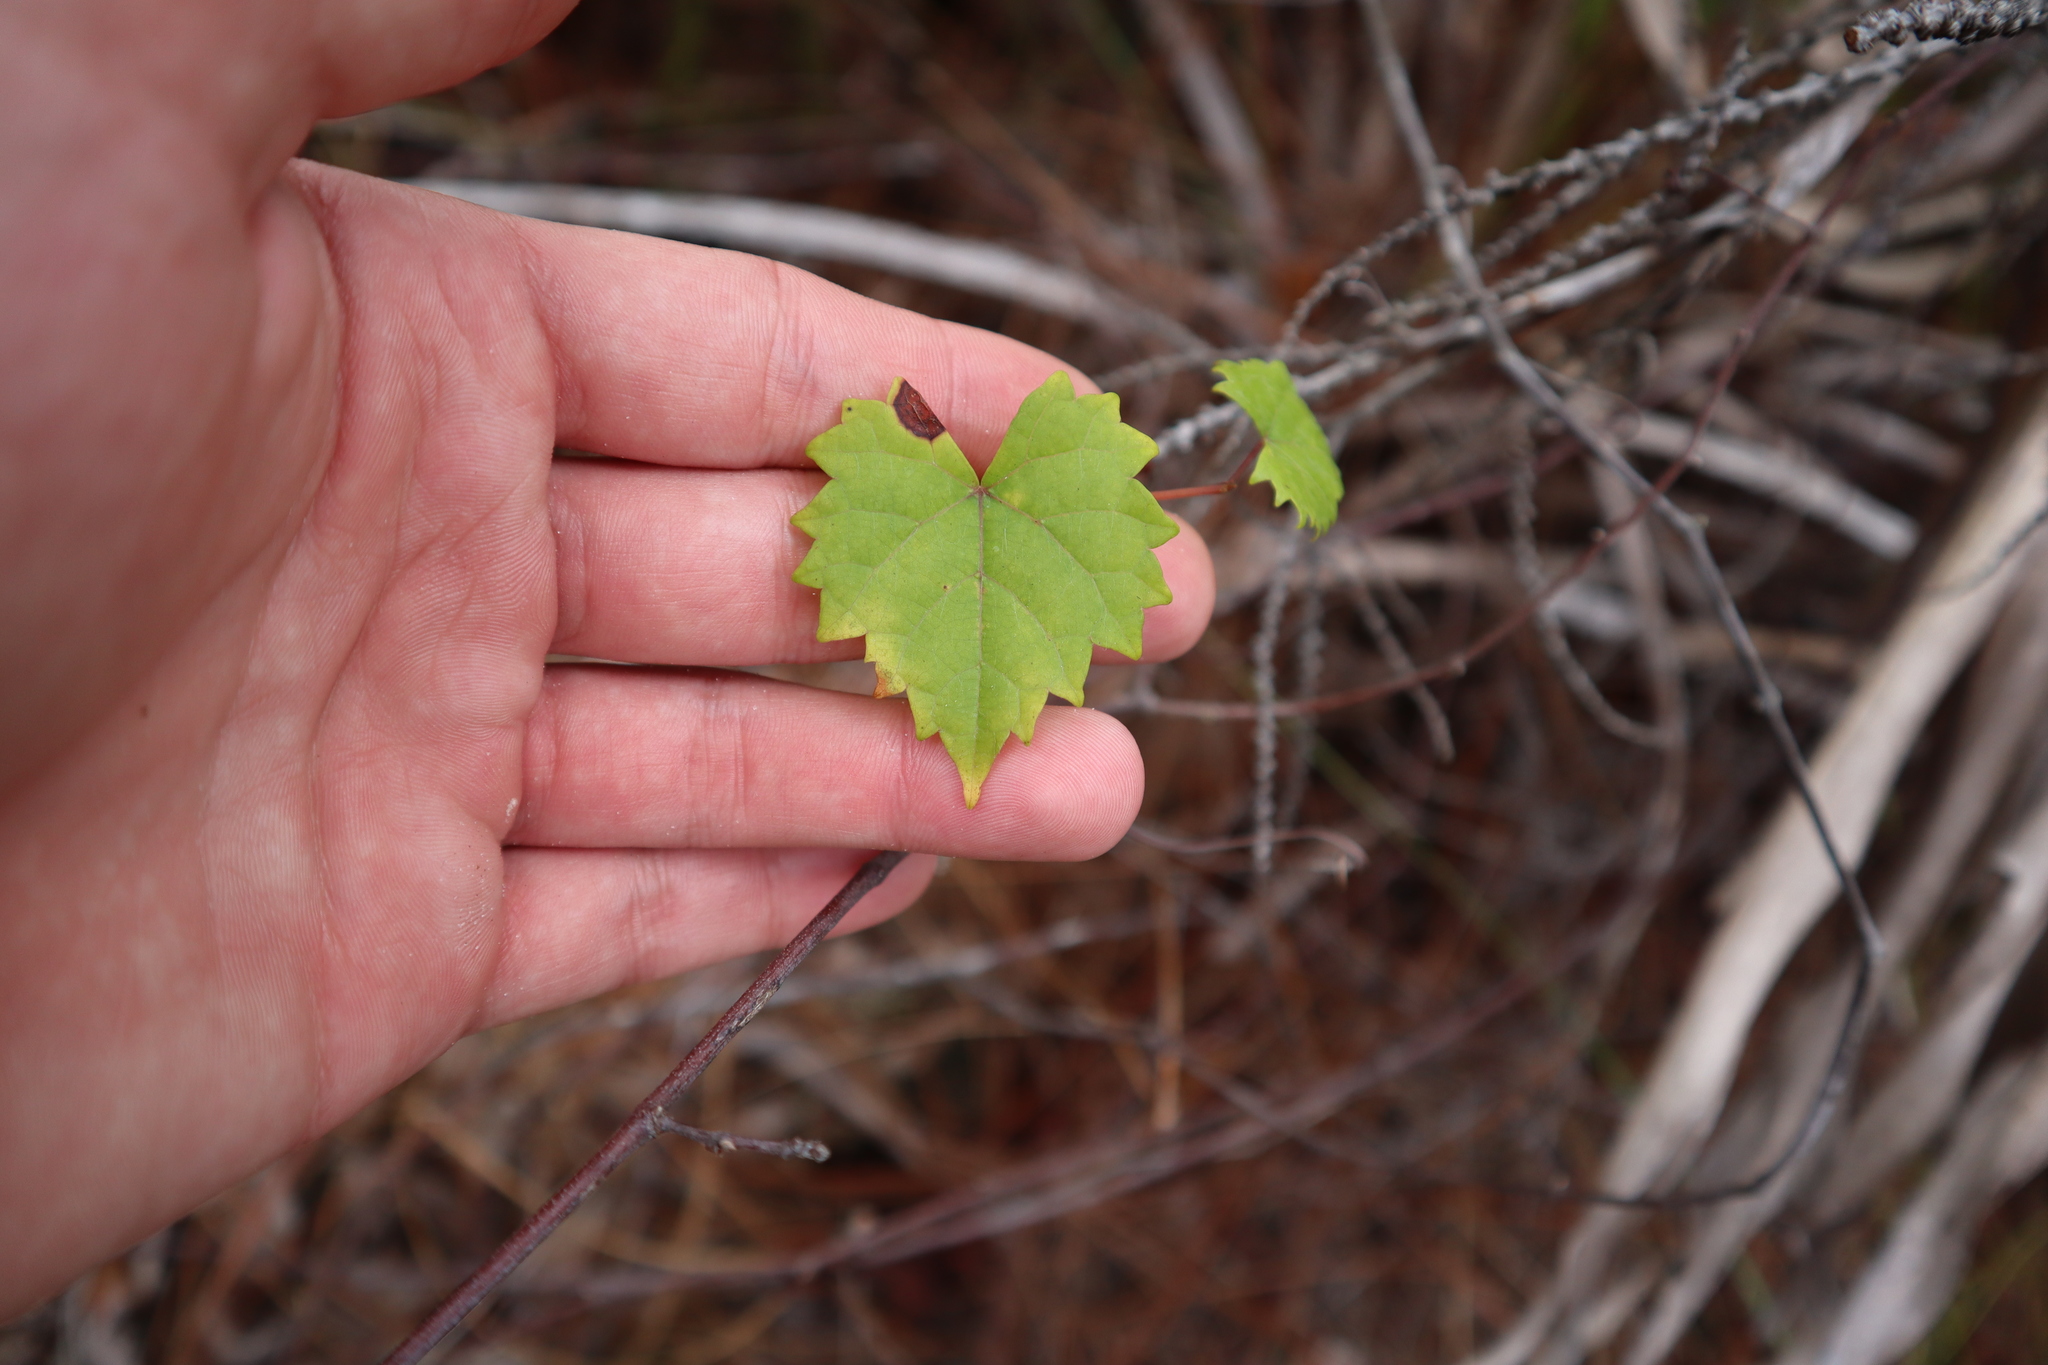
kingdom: Plantae
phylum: Tracheophyta
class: Magnoliopsida
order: Vitales
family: Vitaceae
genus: Vitis
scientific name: Vitis rotundifolia
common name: Muscadine grape
